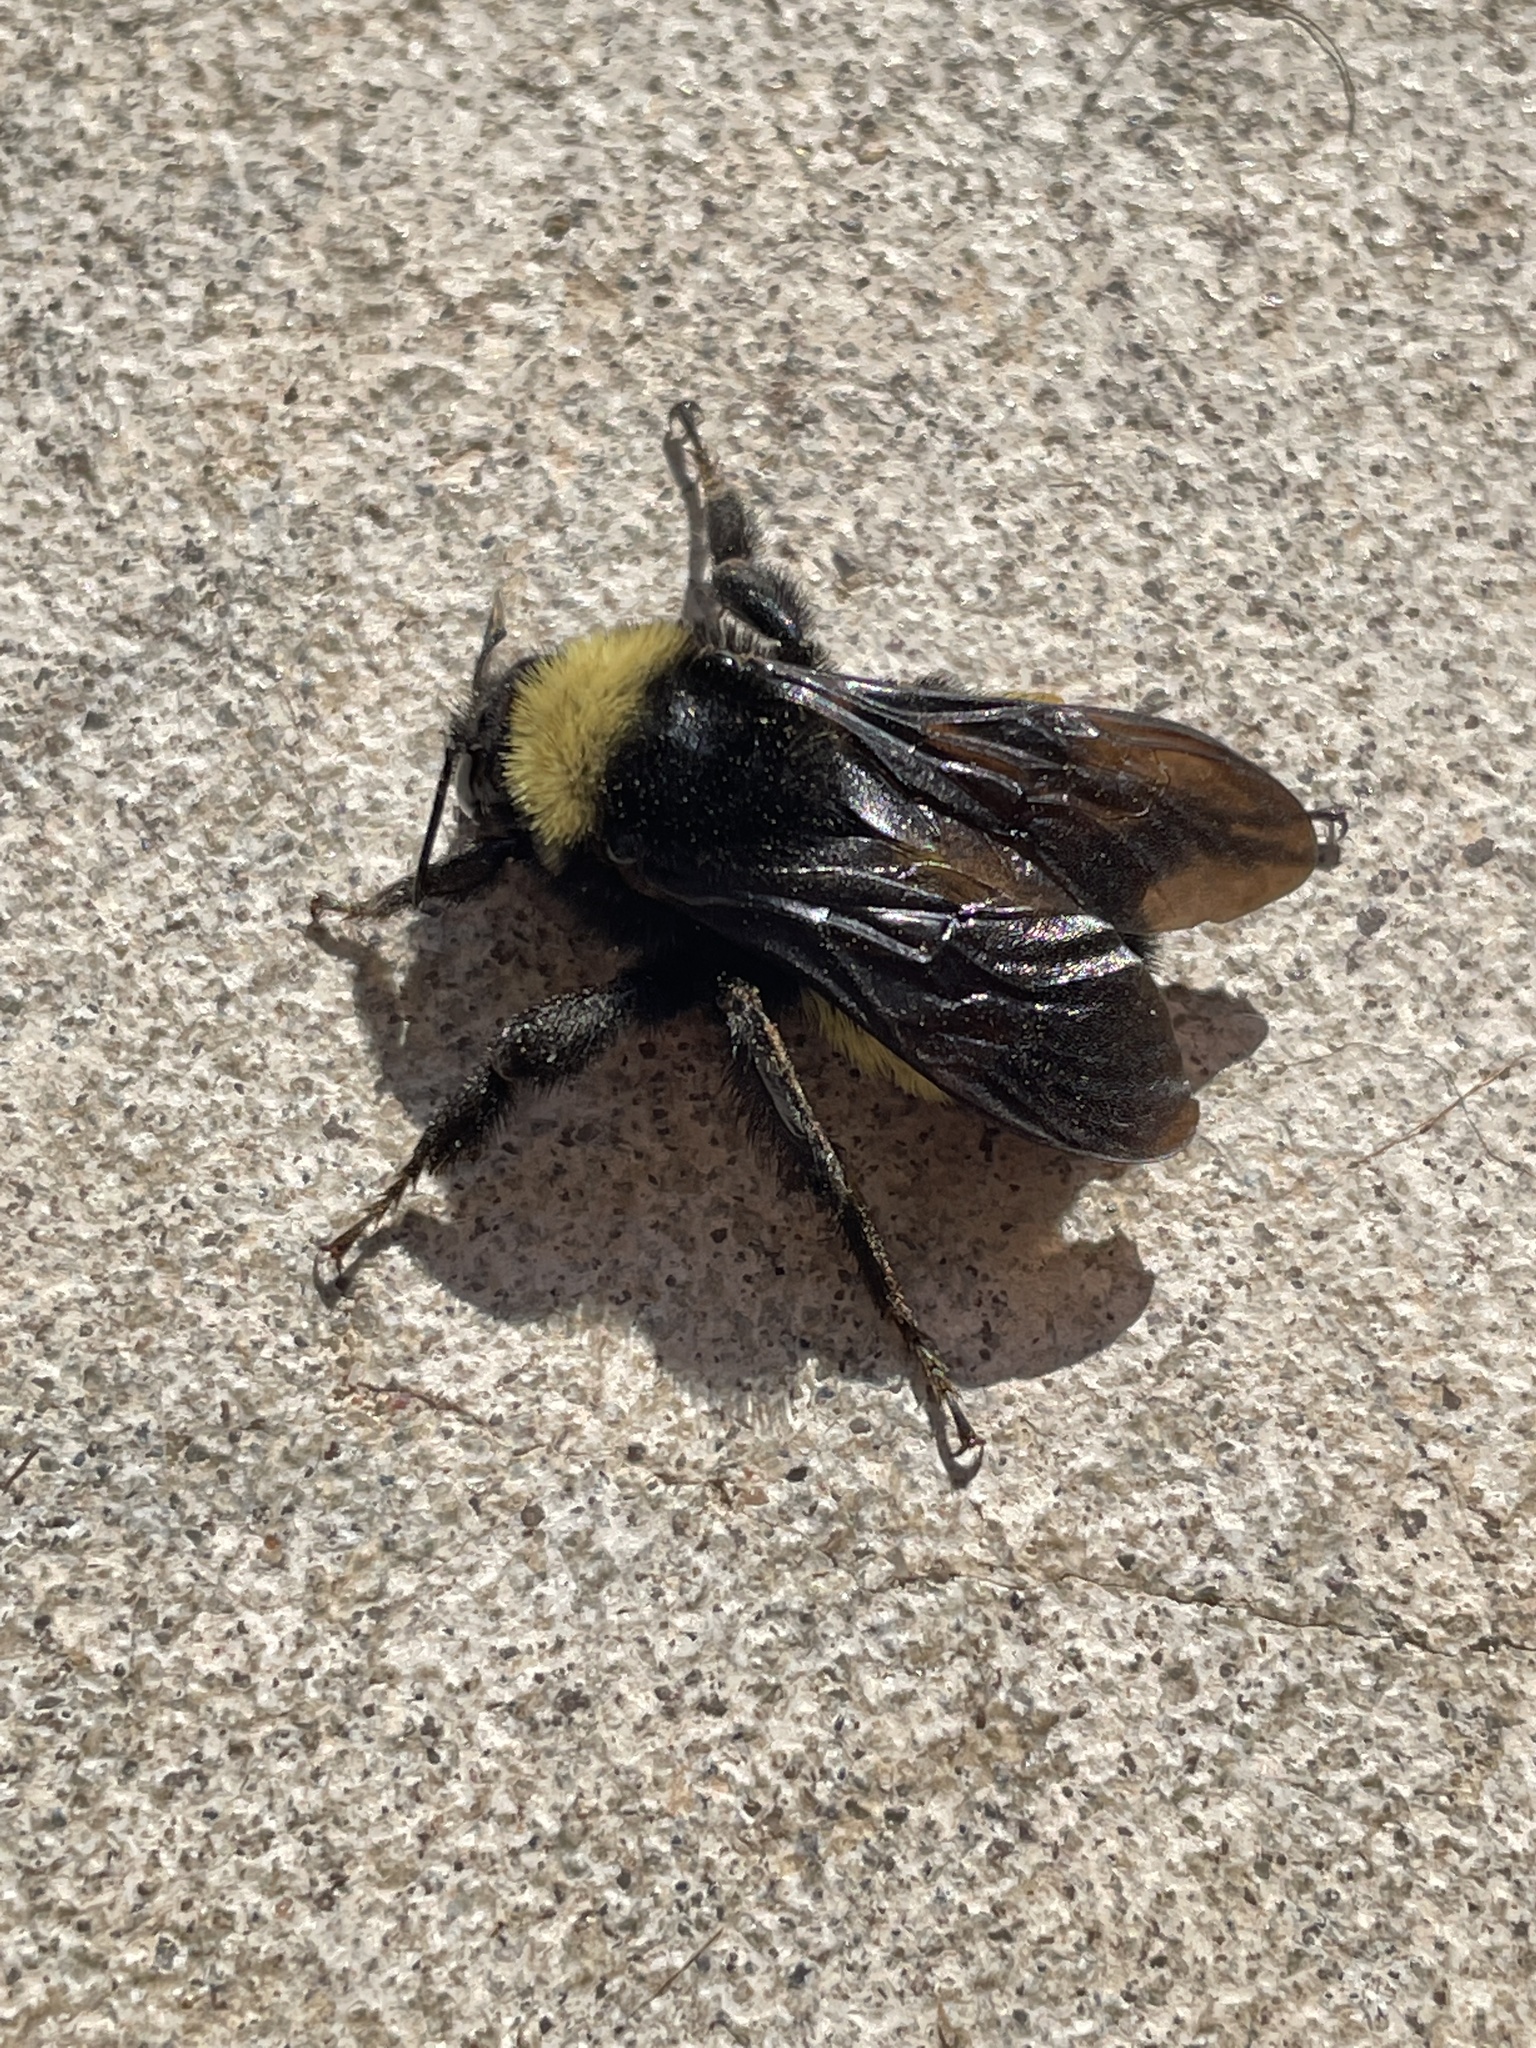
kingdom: Animalia
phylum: Arthropoda
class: Insecta
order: Hymenoptera
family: Apidae
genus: Bombus
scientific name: Bombus pensylvanicus
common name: Bumble bee
